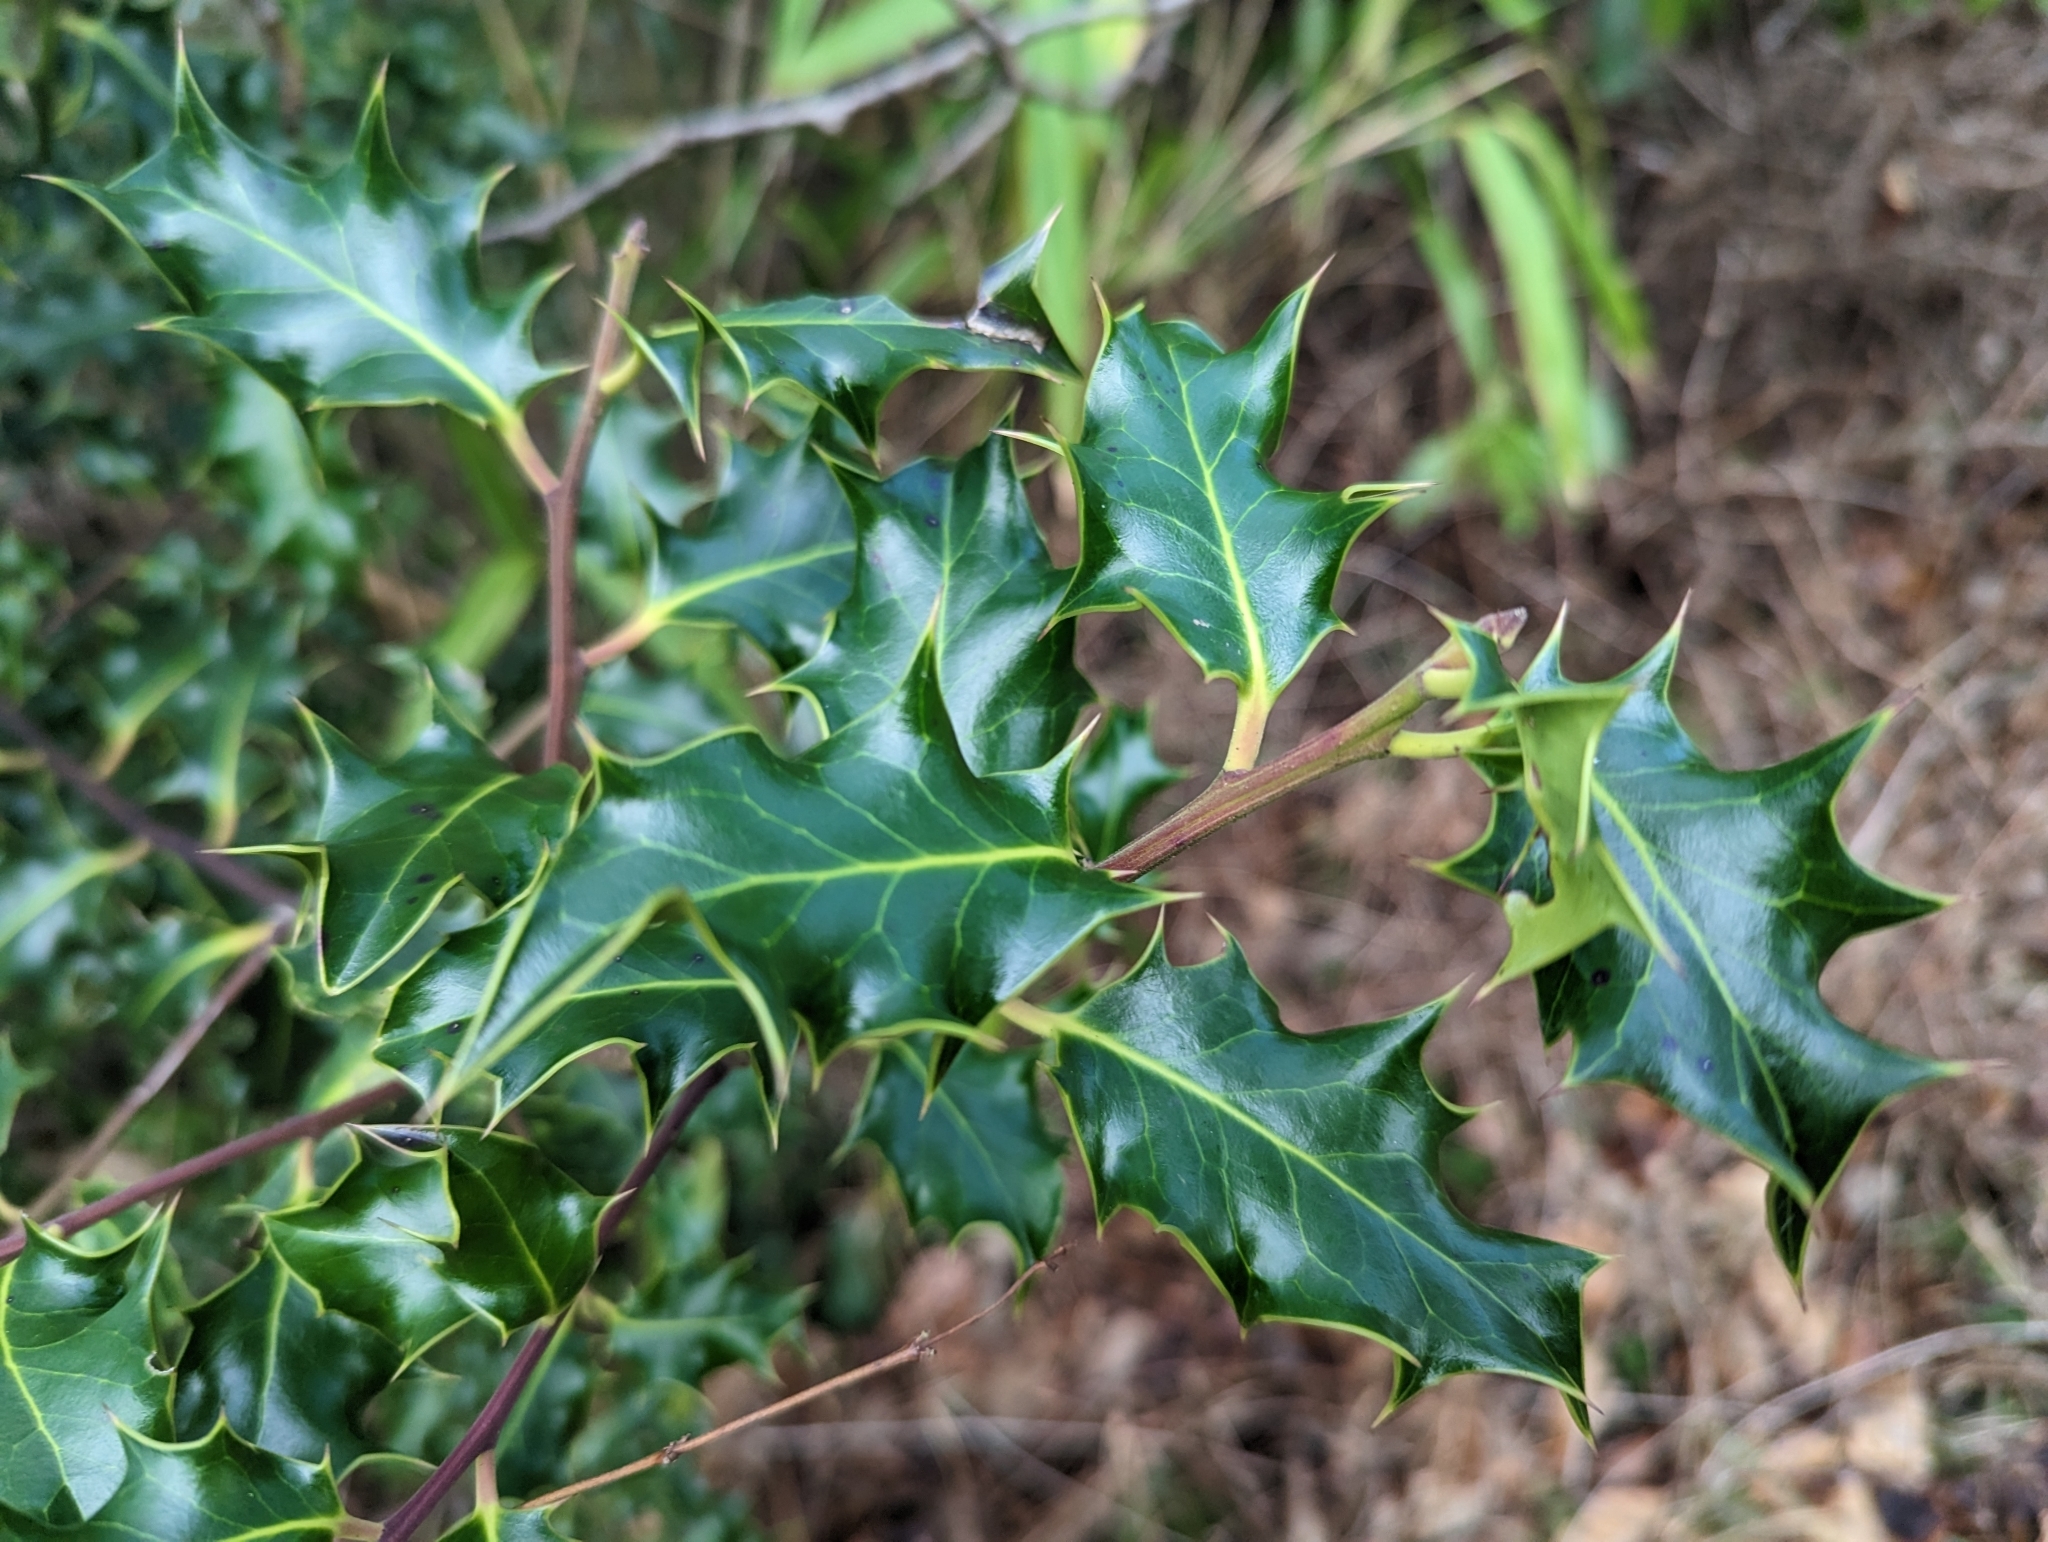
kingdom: Plantae
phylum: Tracheophyta
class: Magnoliopsida
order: Aquifoliales
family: Aquifoliaceae
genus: Ilex
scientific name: Ilex aquifolium
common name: English holly
